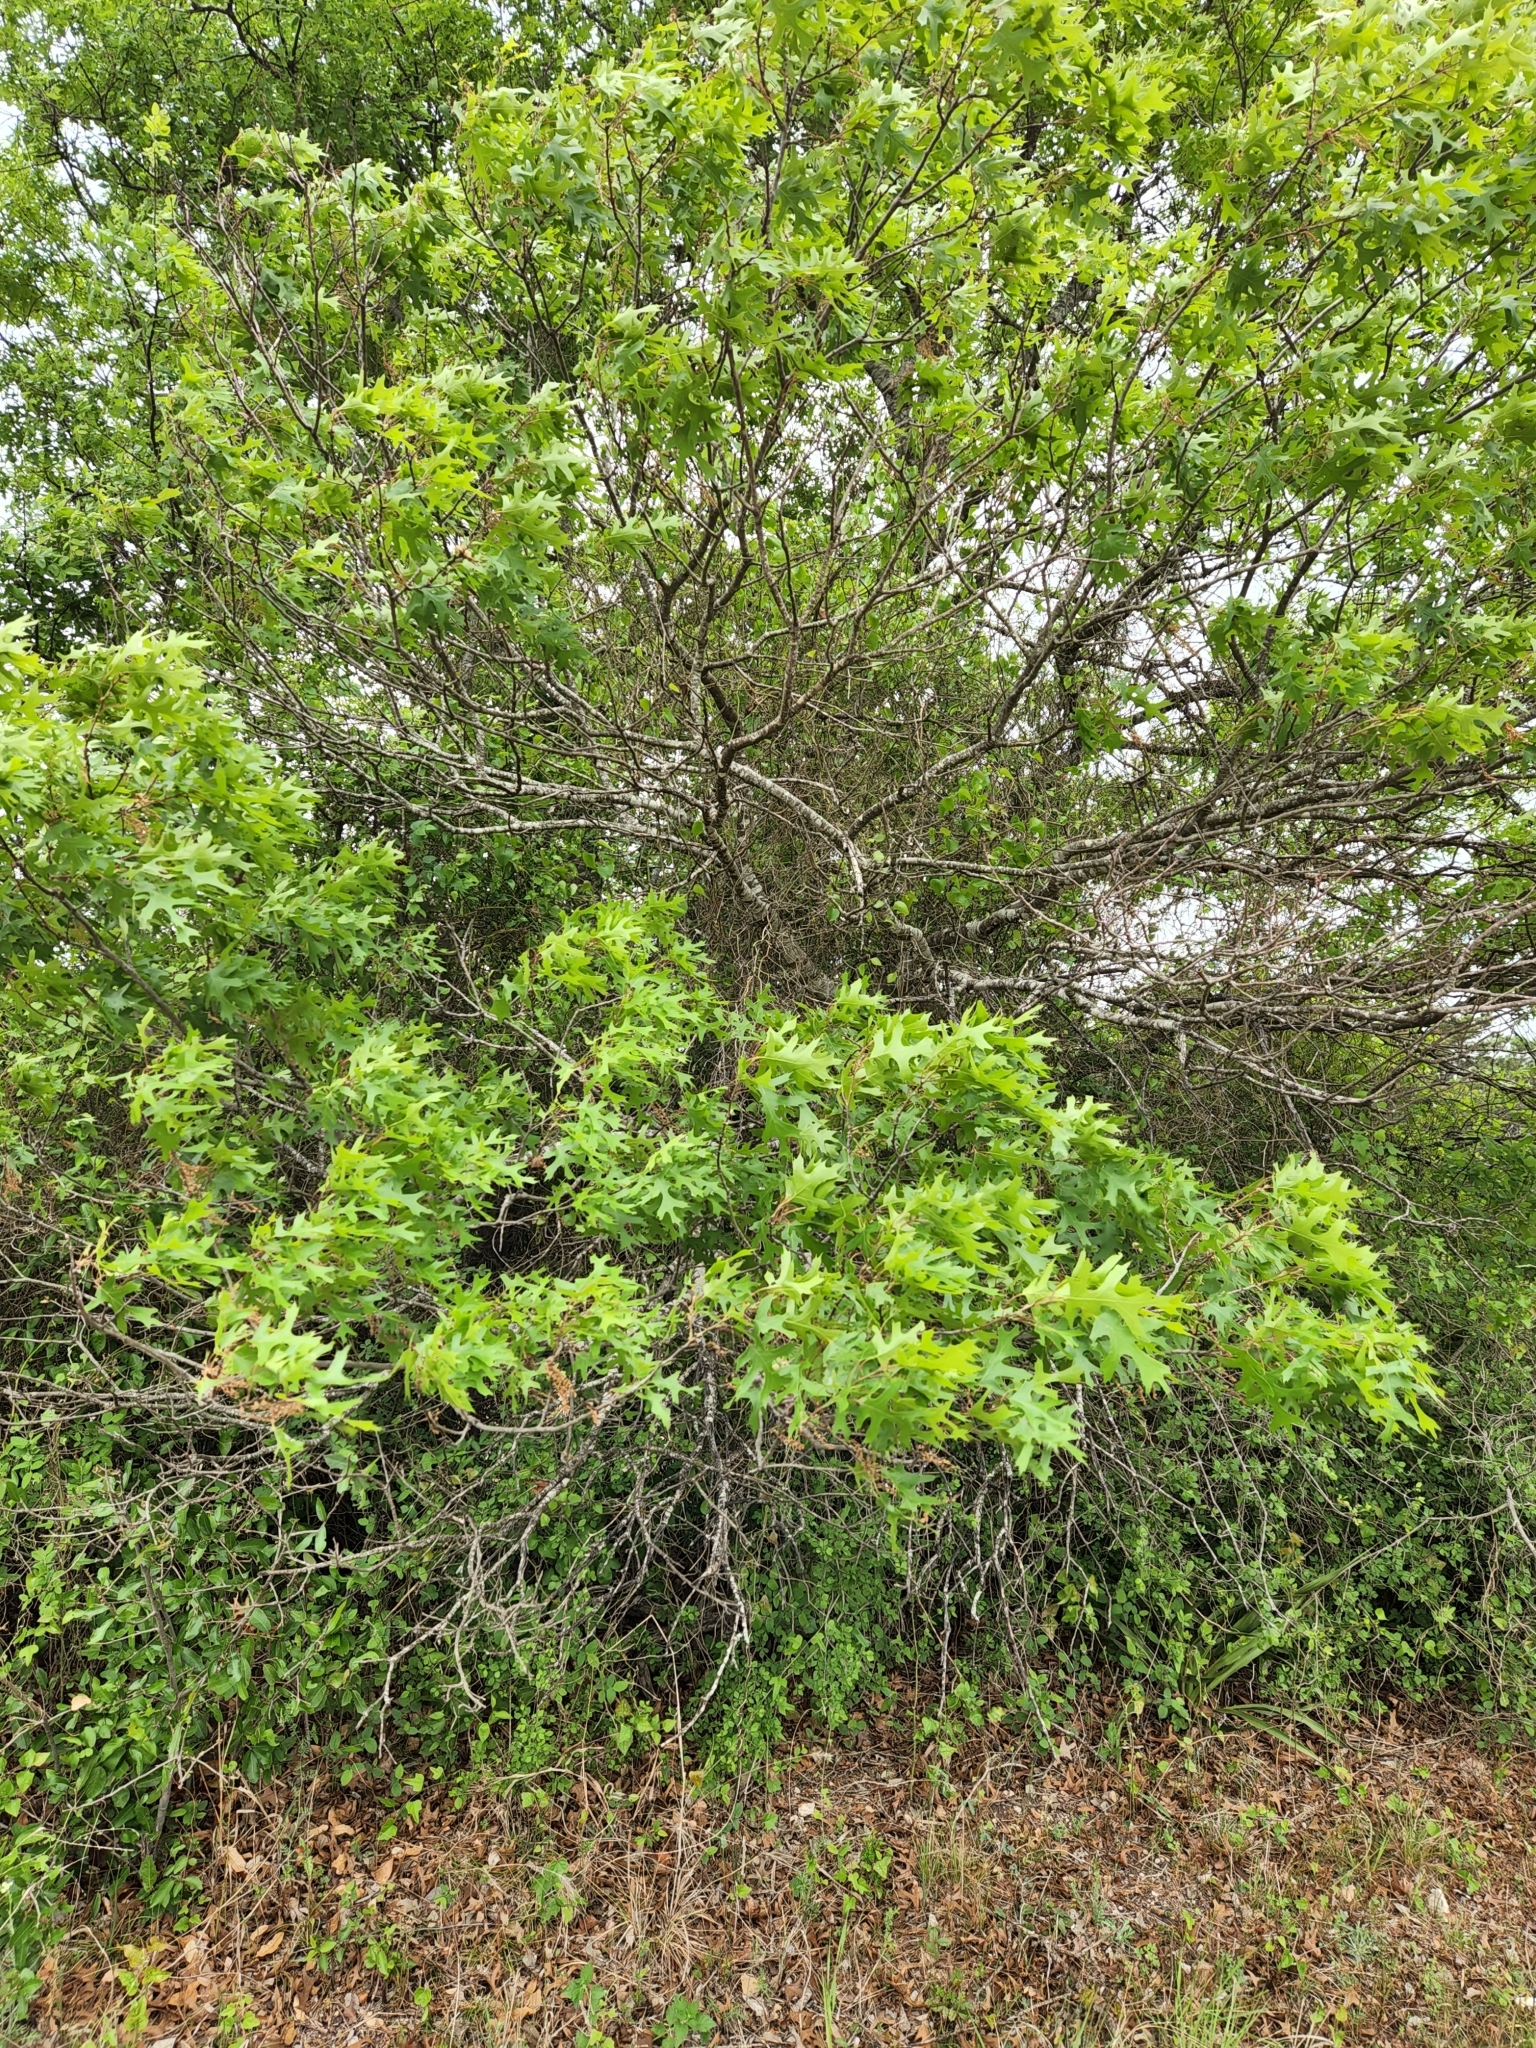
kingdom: Plantae
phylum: Tracheophyta
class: Magnoliopsida
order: Fagales
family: Fagaceae
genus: Quercus
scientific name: Quercus buckleyi
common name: Buckley oak
